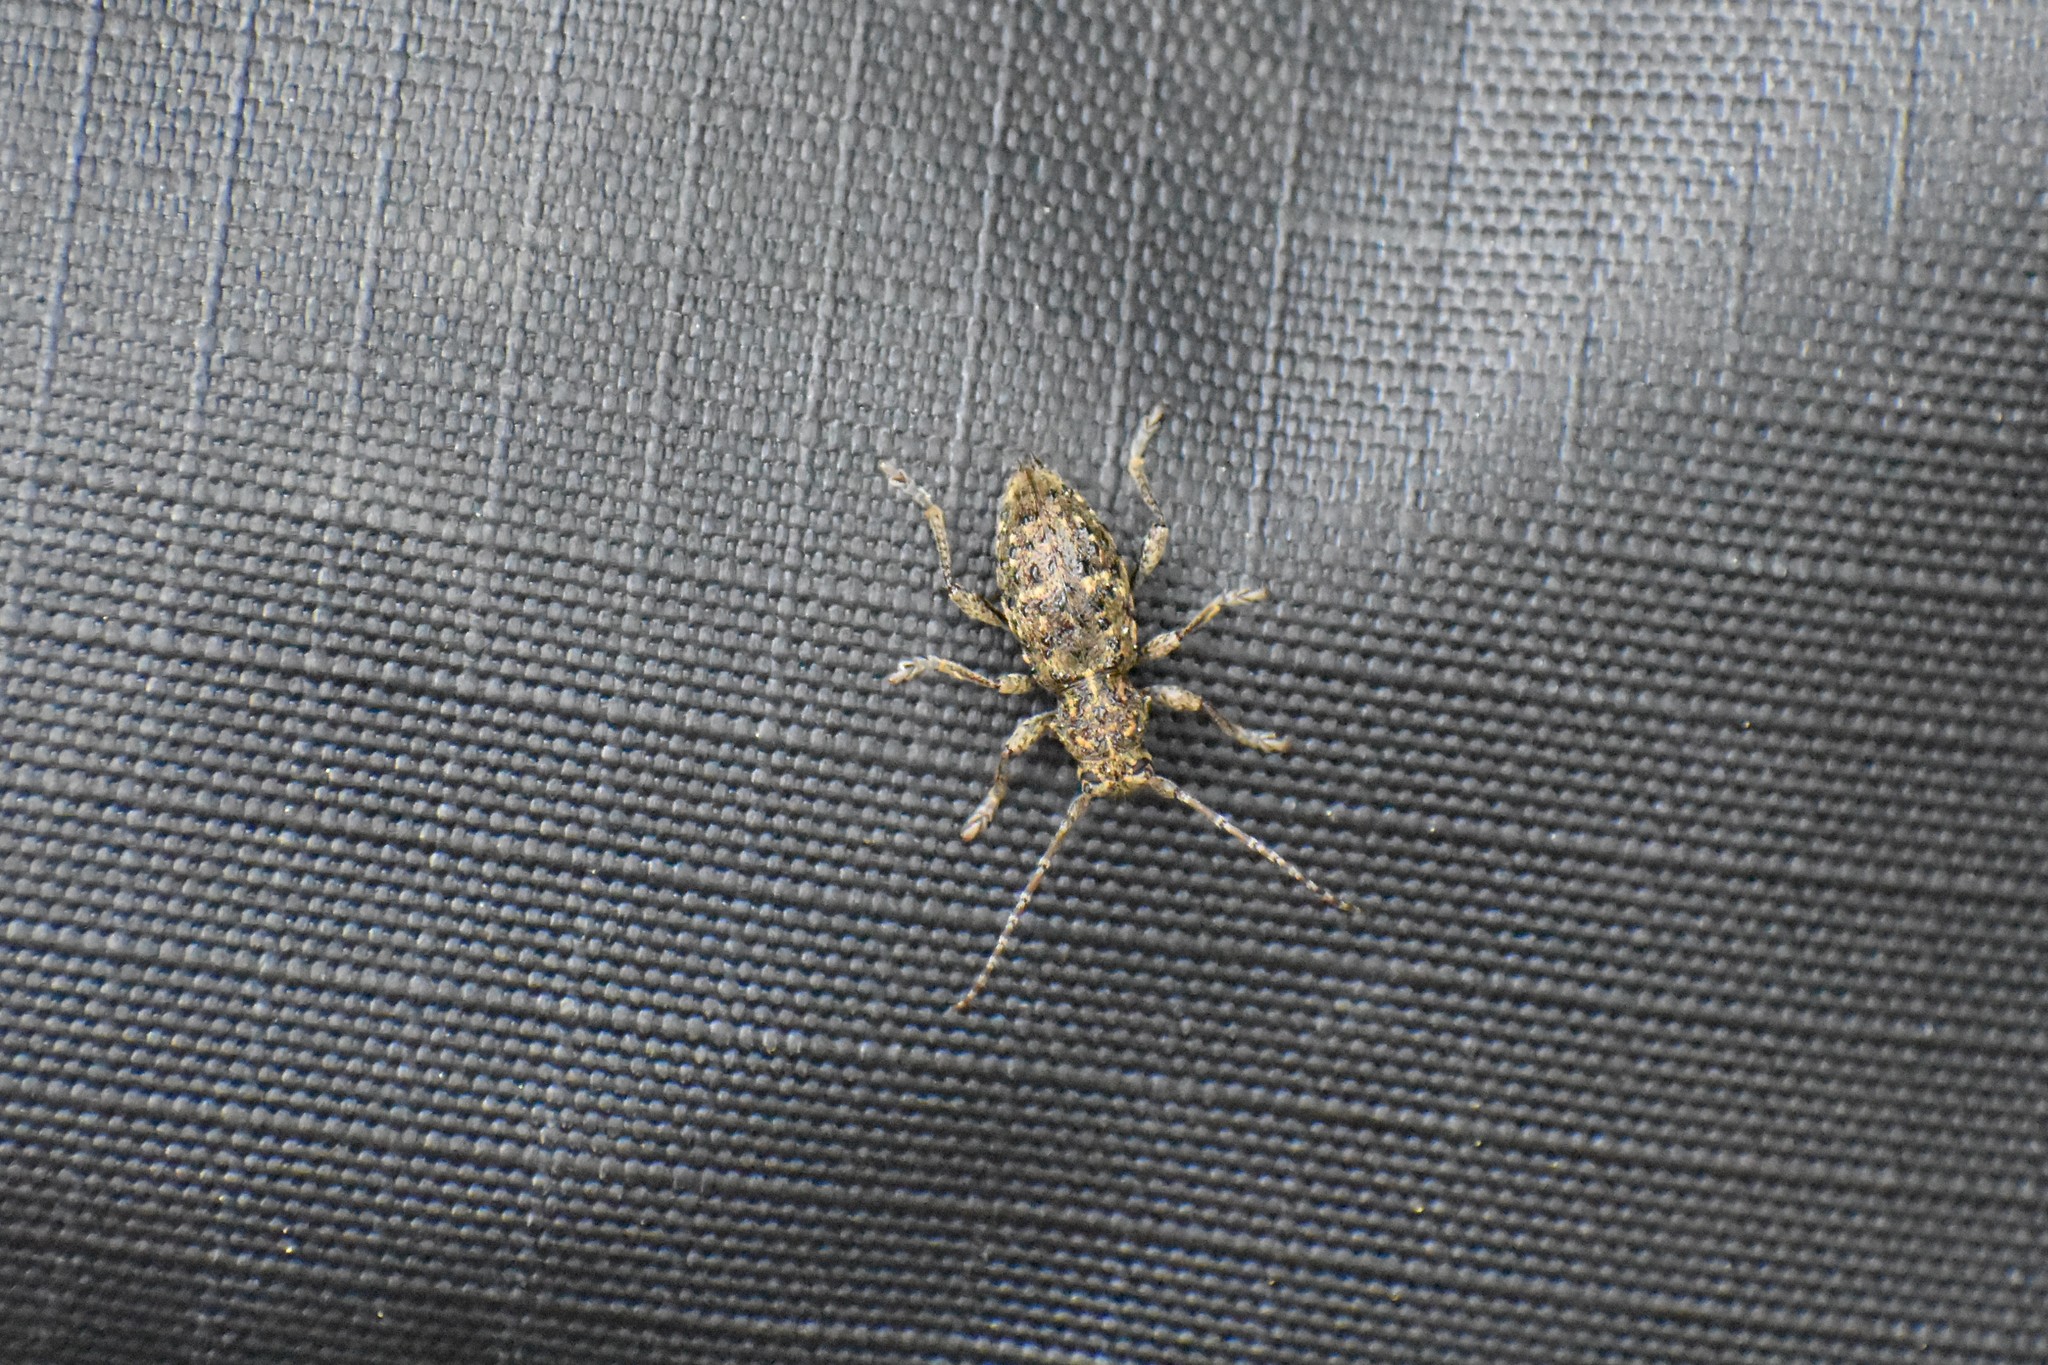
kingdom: Animalia
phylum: Arthropoda
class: Insecta
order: Coleoptera
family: Cerambycidae
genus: Plectrura
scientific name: Plectrura spinicauda
